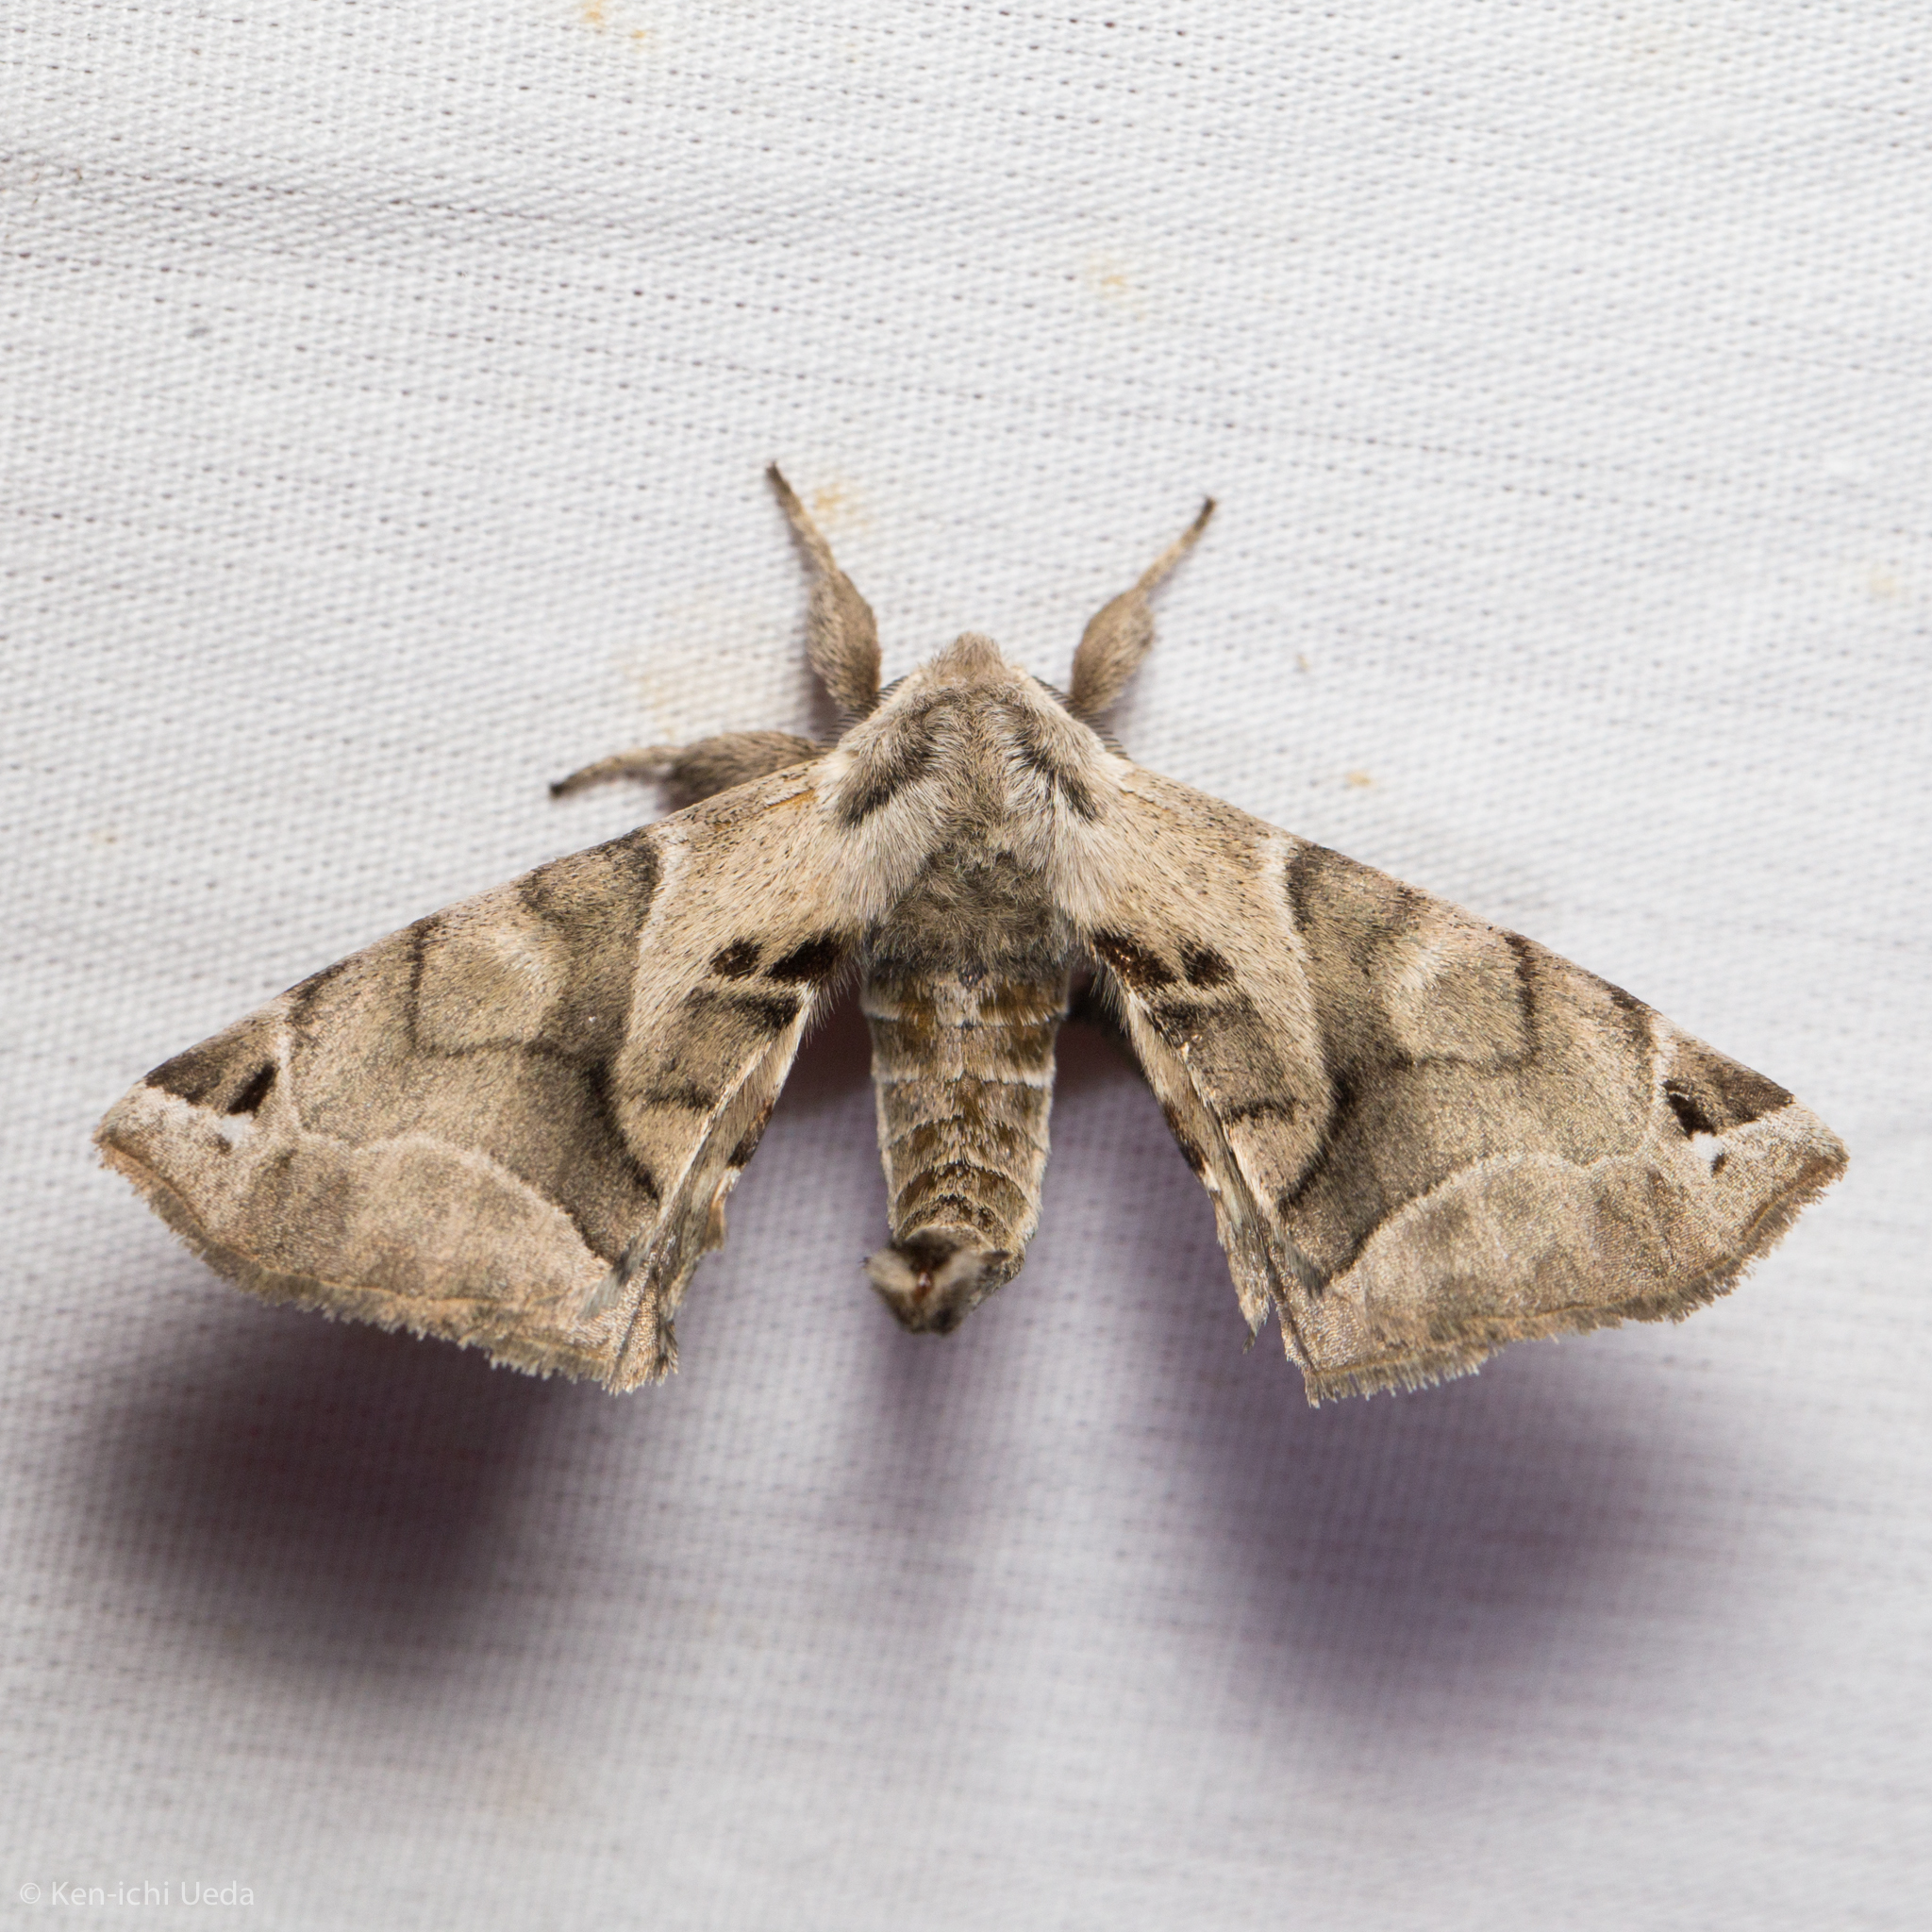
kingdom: Animalia
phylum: Arthropoda
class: Insecta
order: Lepidoptera
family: Apatelodidae
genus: Hygrochroa
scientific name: Hygrochroa Apatelodes pudefacta
